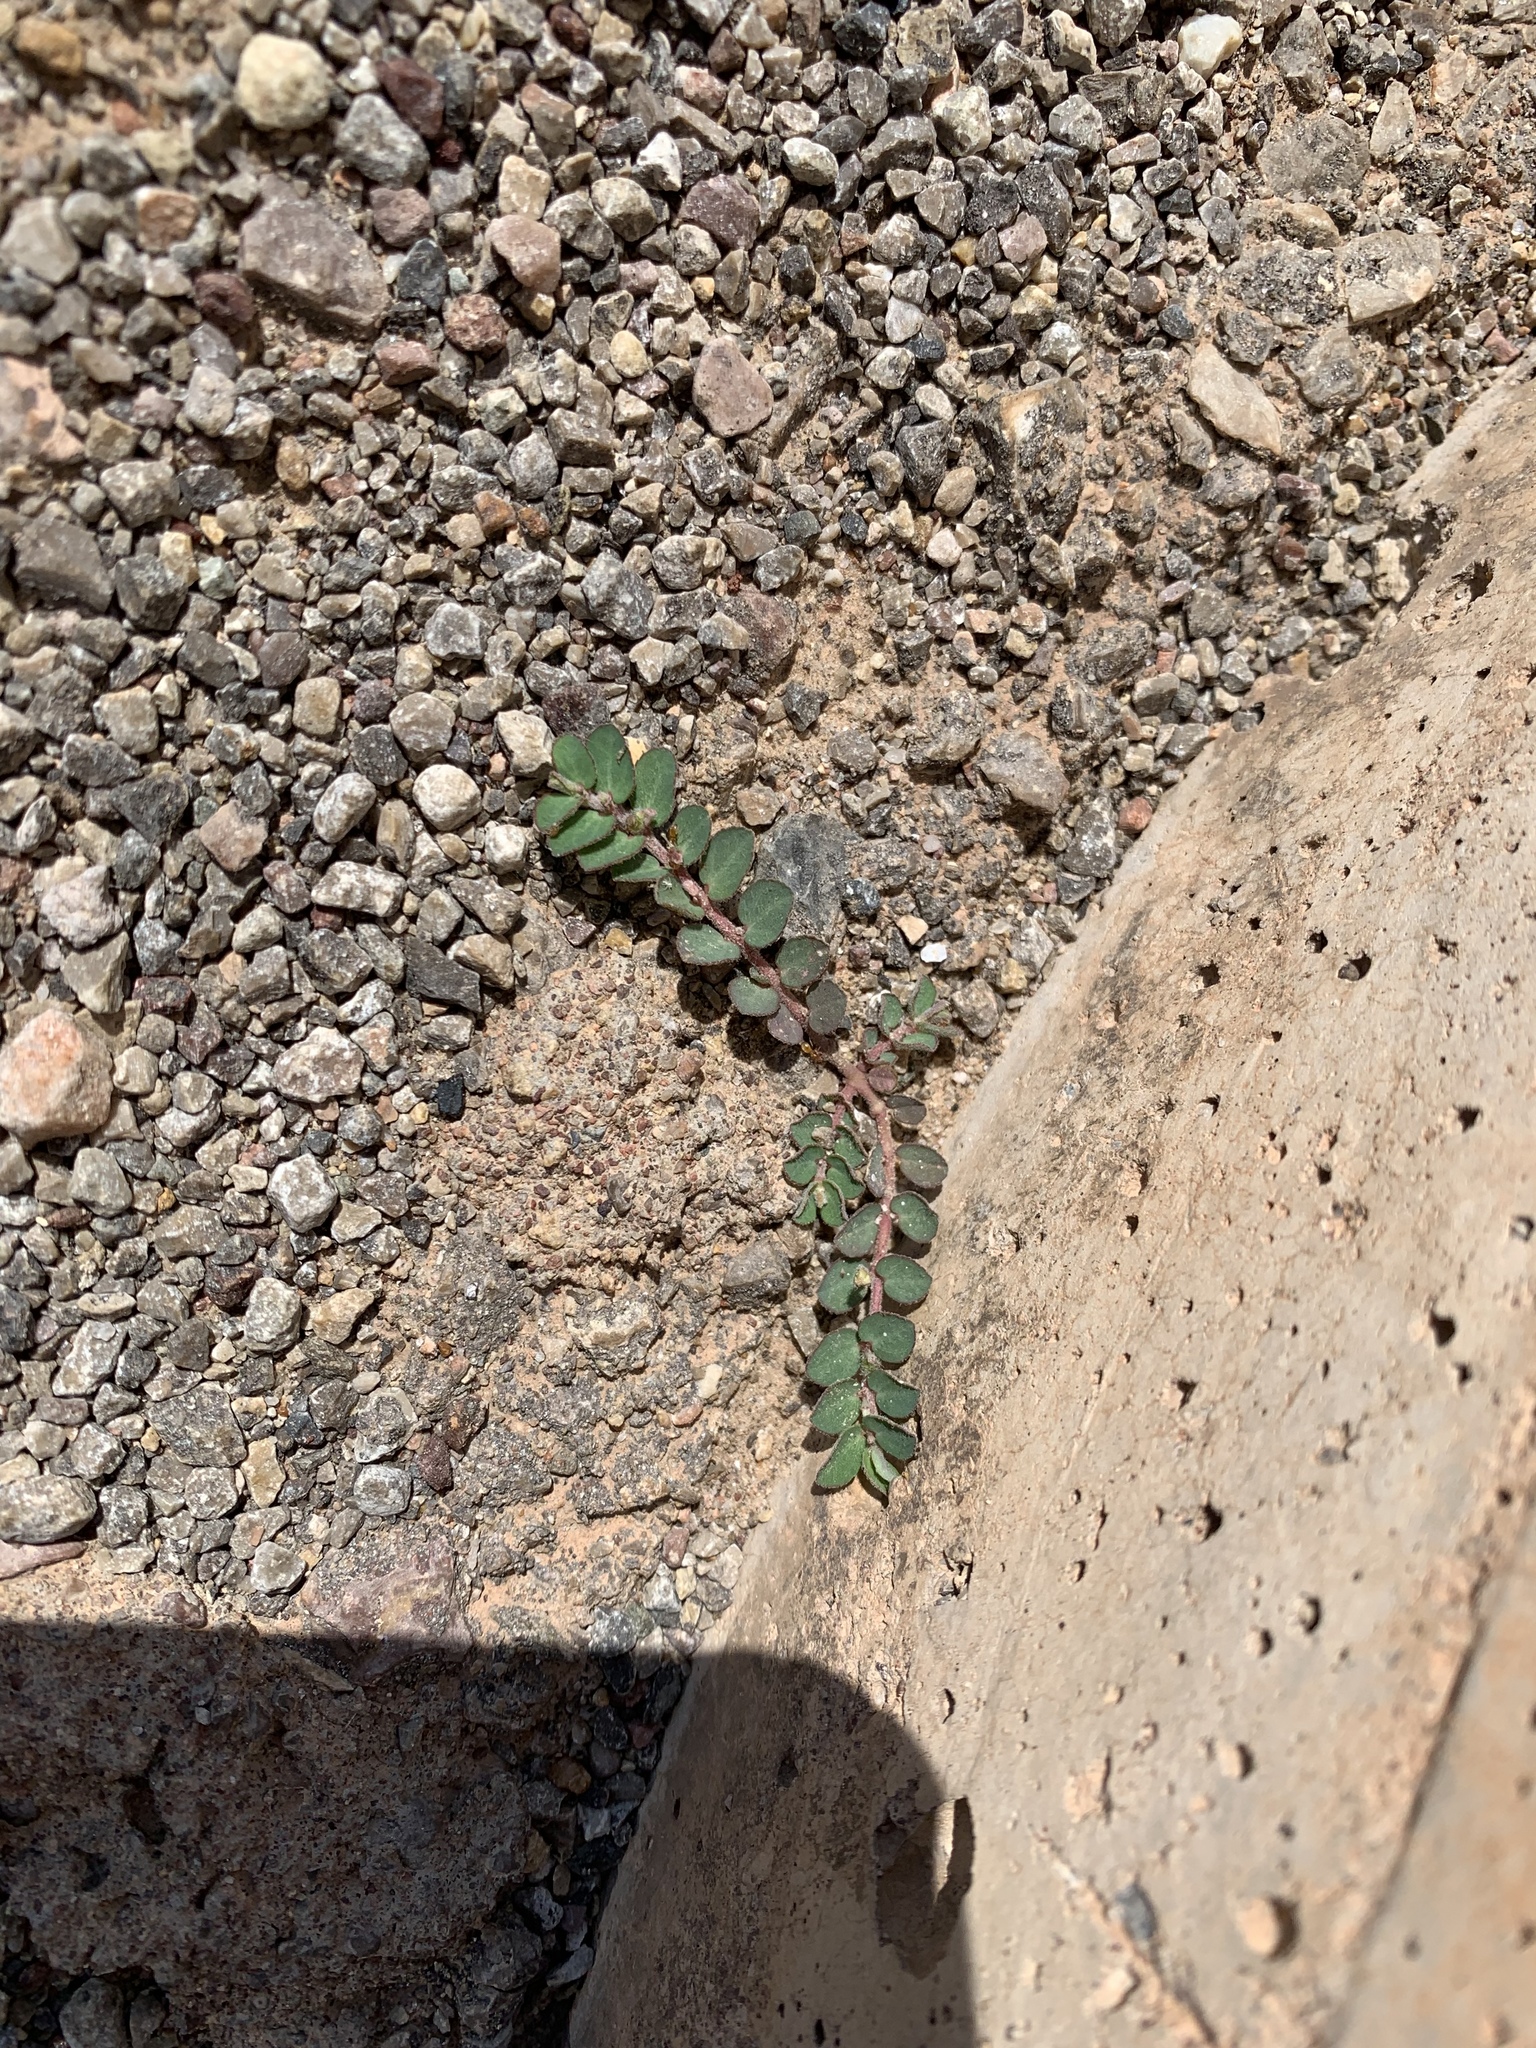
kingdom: Plantae
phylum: Tracheophyta
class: Magnoliopsida
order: Malpighiales
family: Euphorbiaceae
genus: Euphorbia
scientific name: Euphorbia prostrata
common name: Prostrate sandmat
